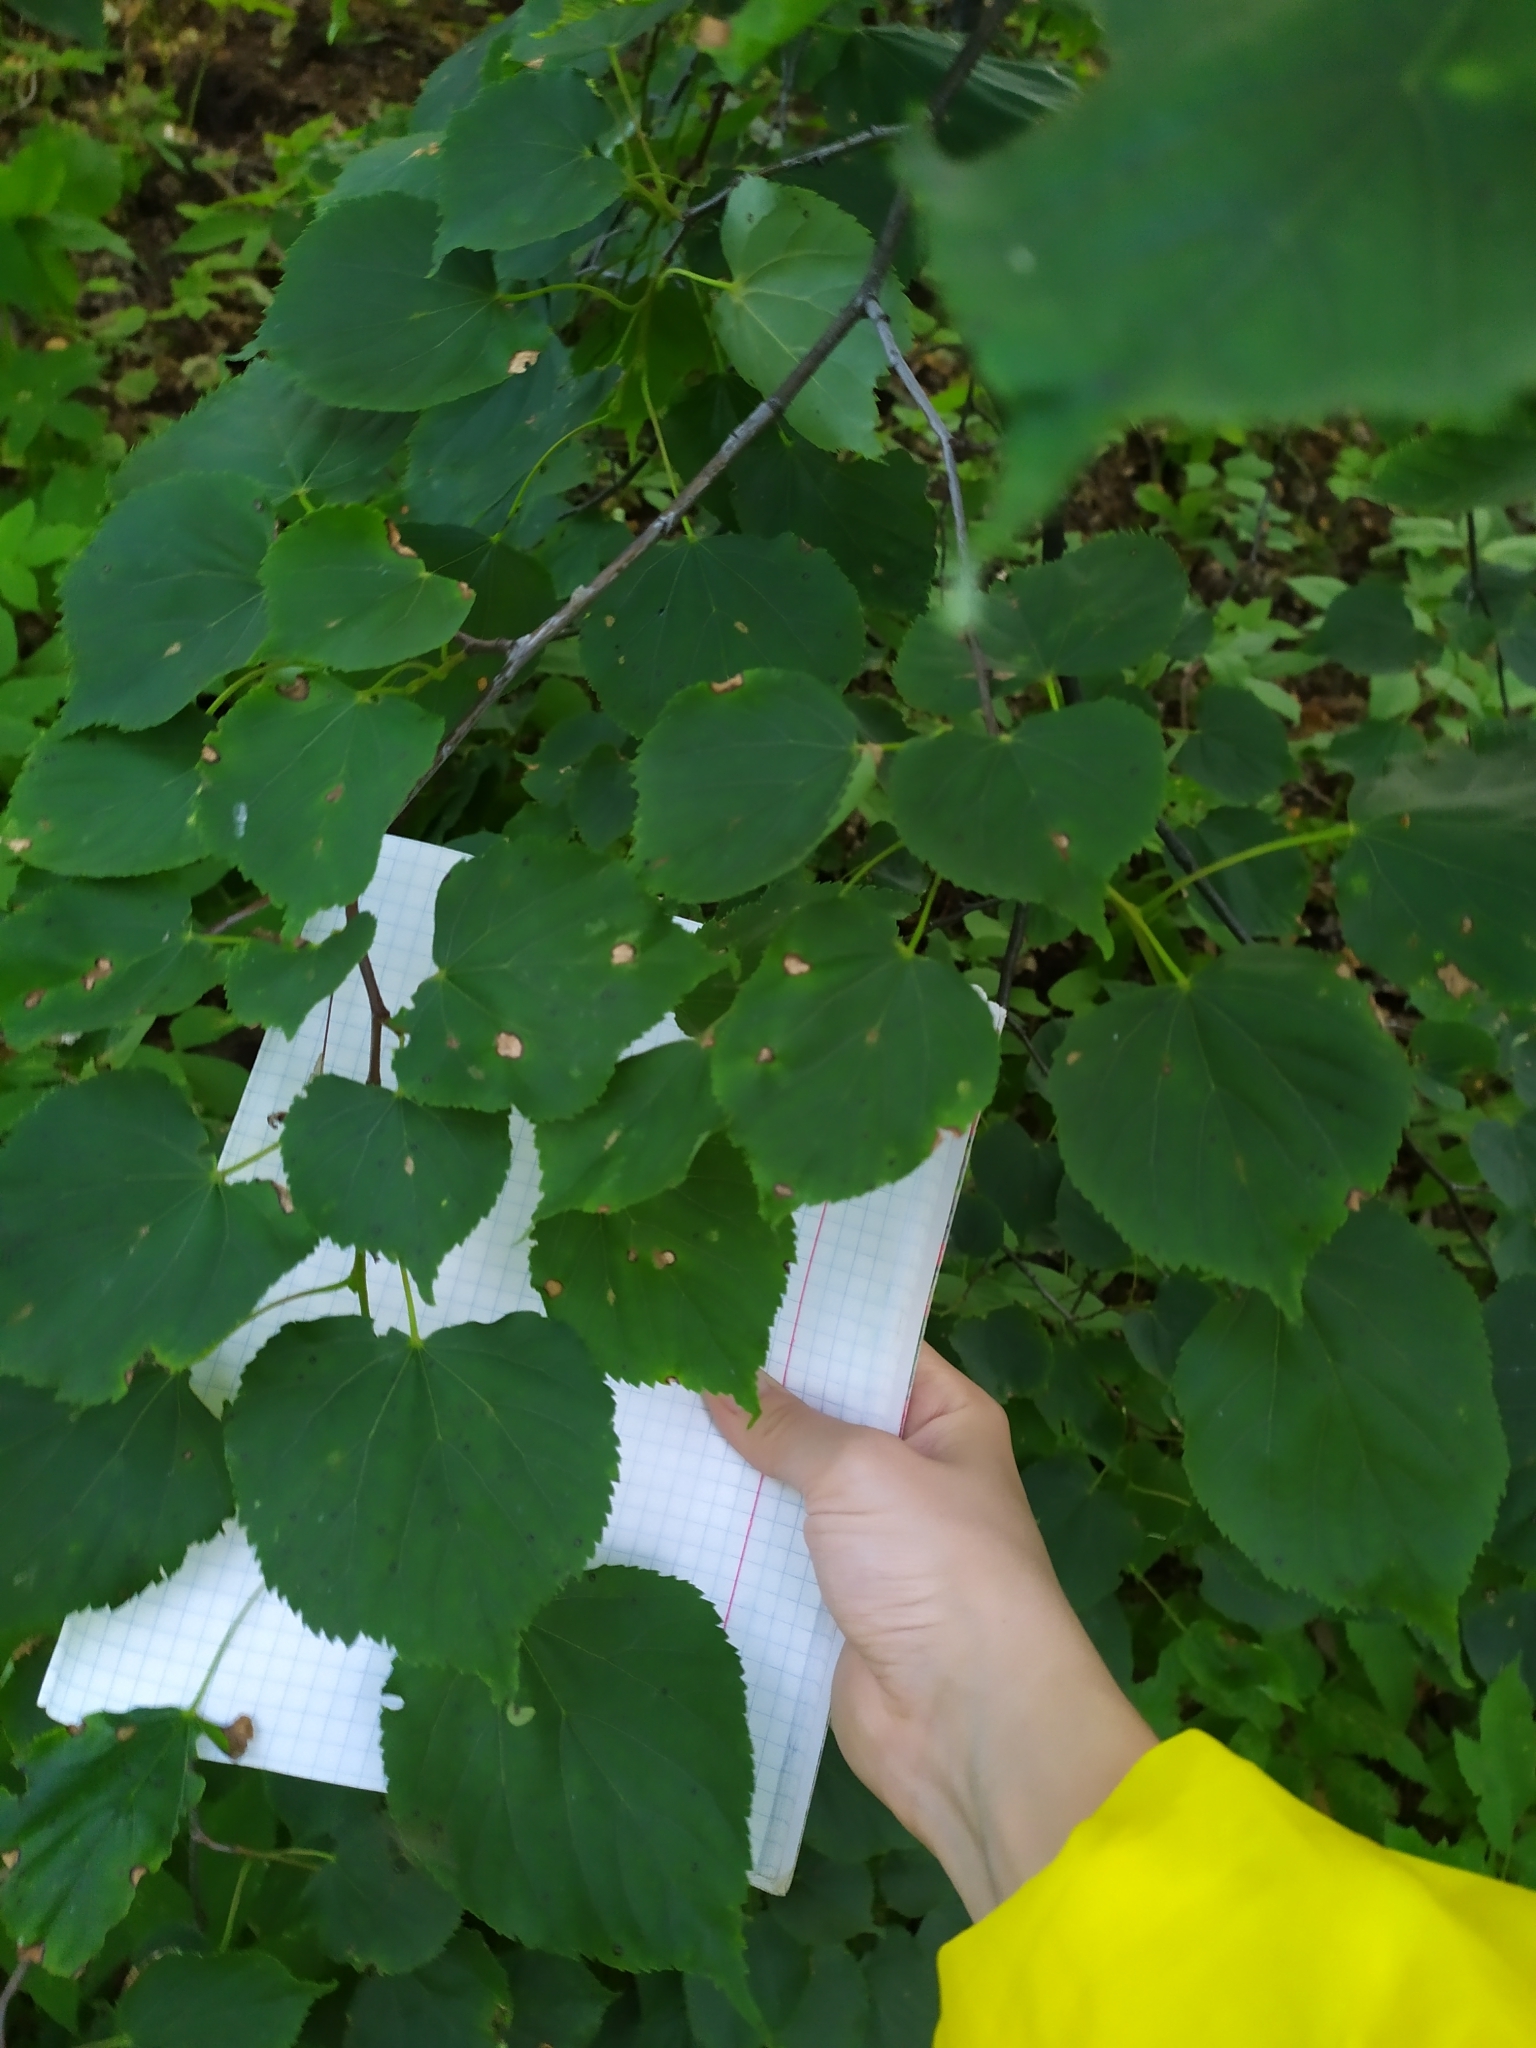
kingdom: Plantae
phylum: Tracheophyta
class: Magnoliopsida
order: Malvales
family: Malvaceae
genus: Tilia
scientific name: Tilia cordata
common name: Small-leaved lime
